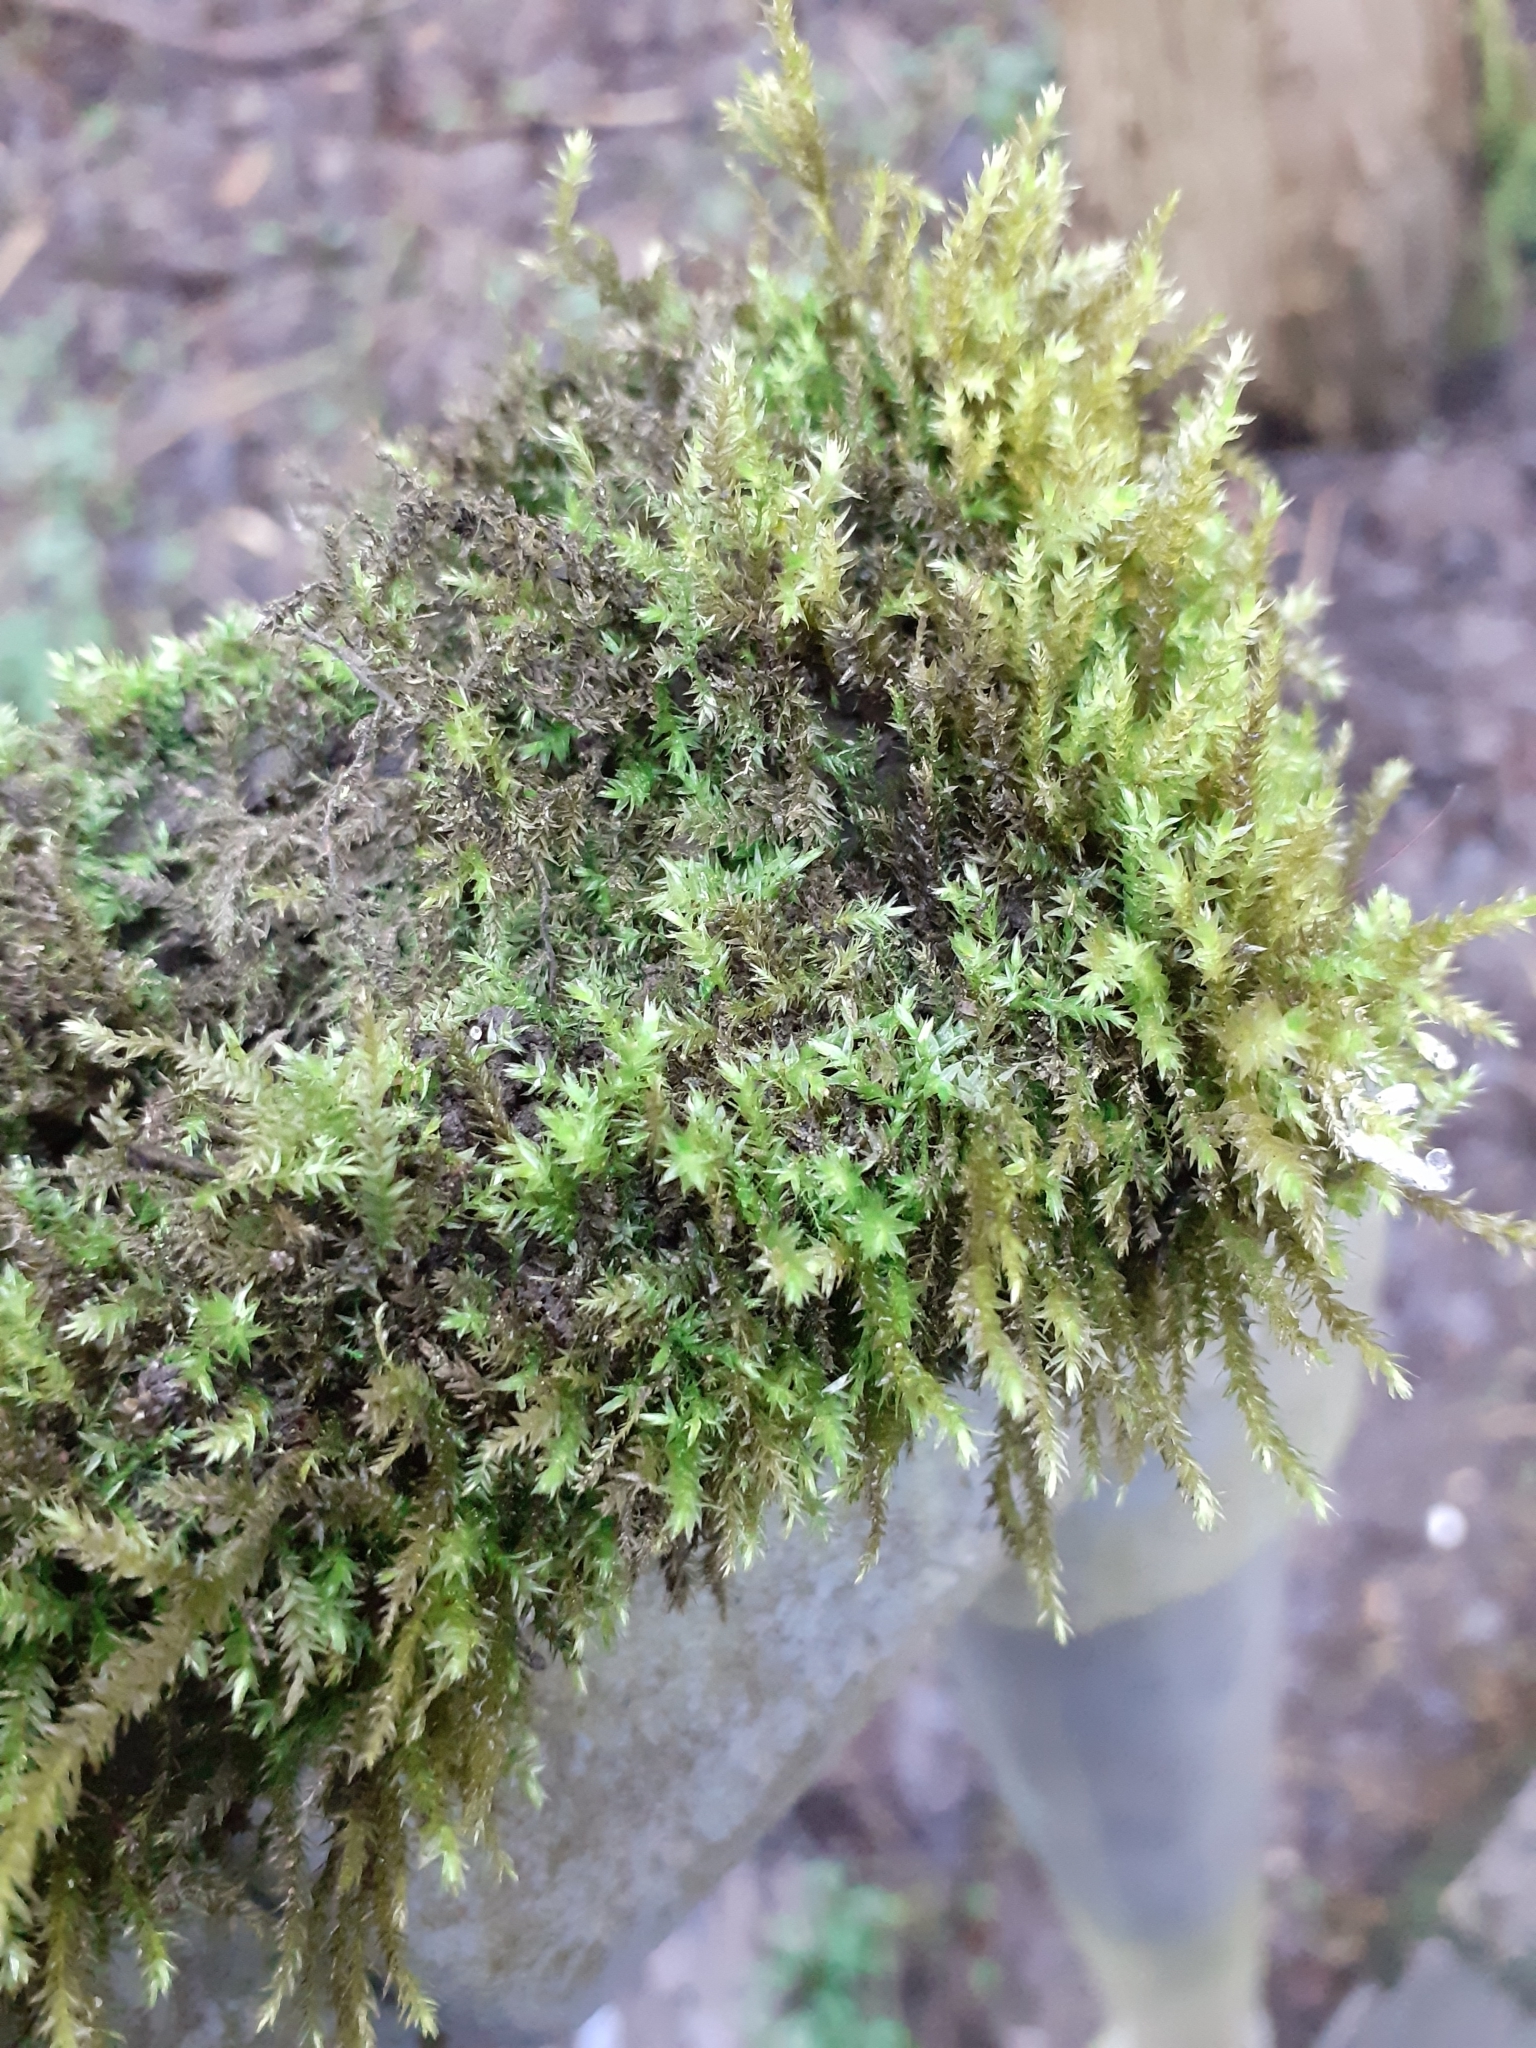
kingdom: Plantae
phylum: Bryophyta
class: Bryopsida
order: Hypnales
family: Brachytheciaceae
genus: Brachythecium
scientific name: Brachythecium rutabulum
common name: Rough-stalked feather-moss
